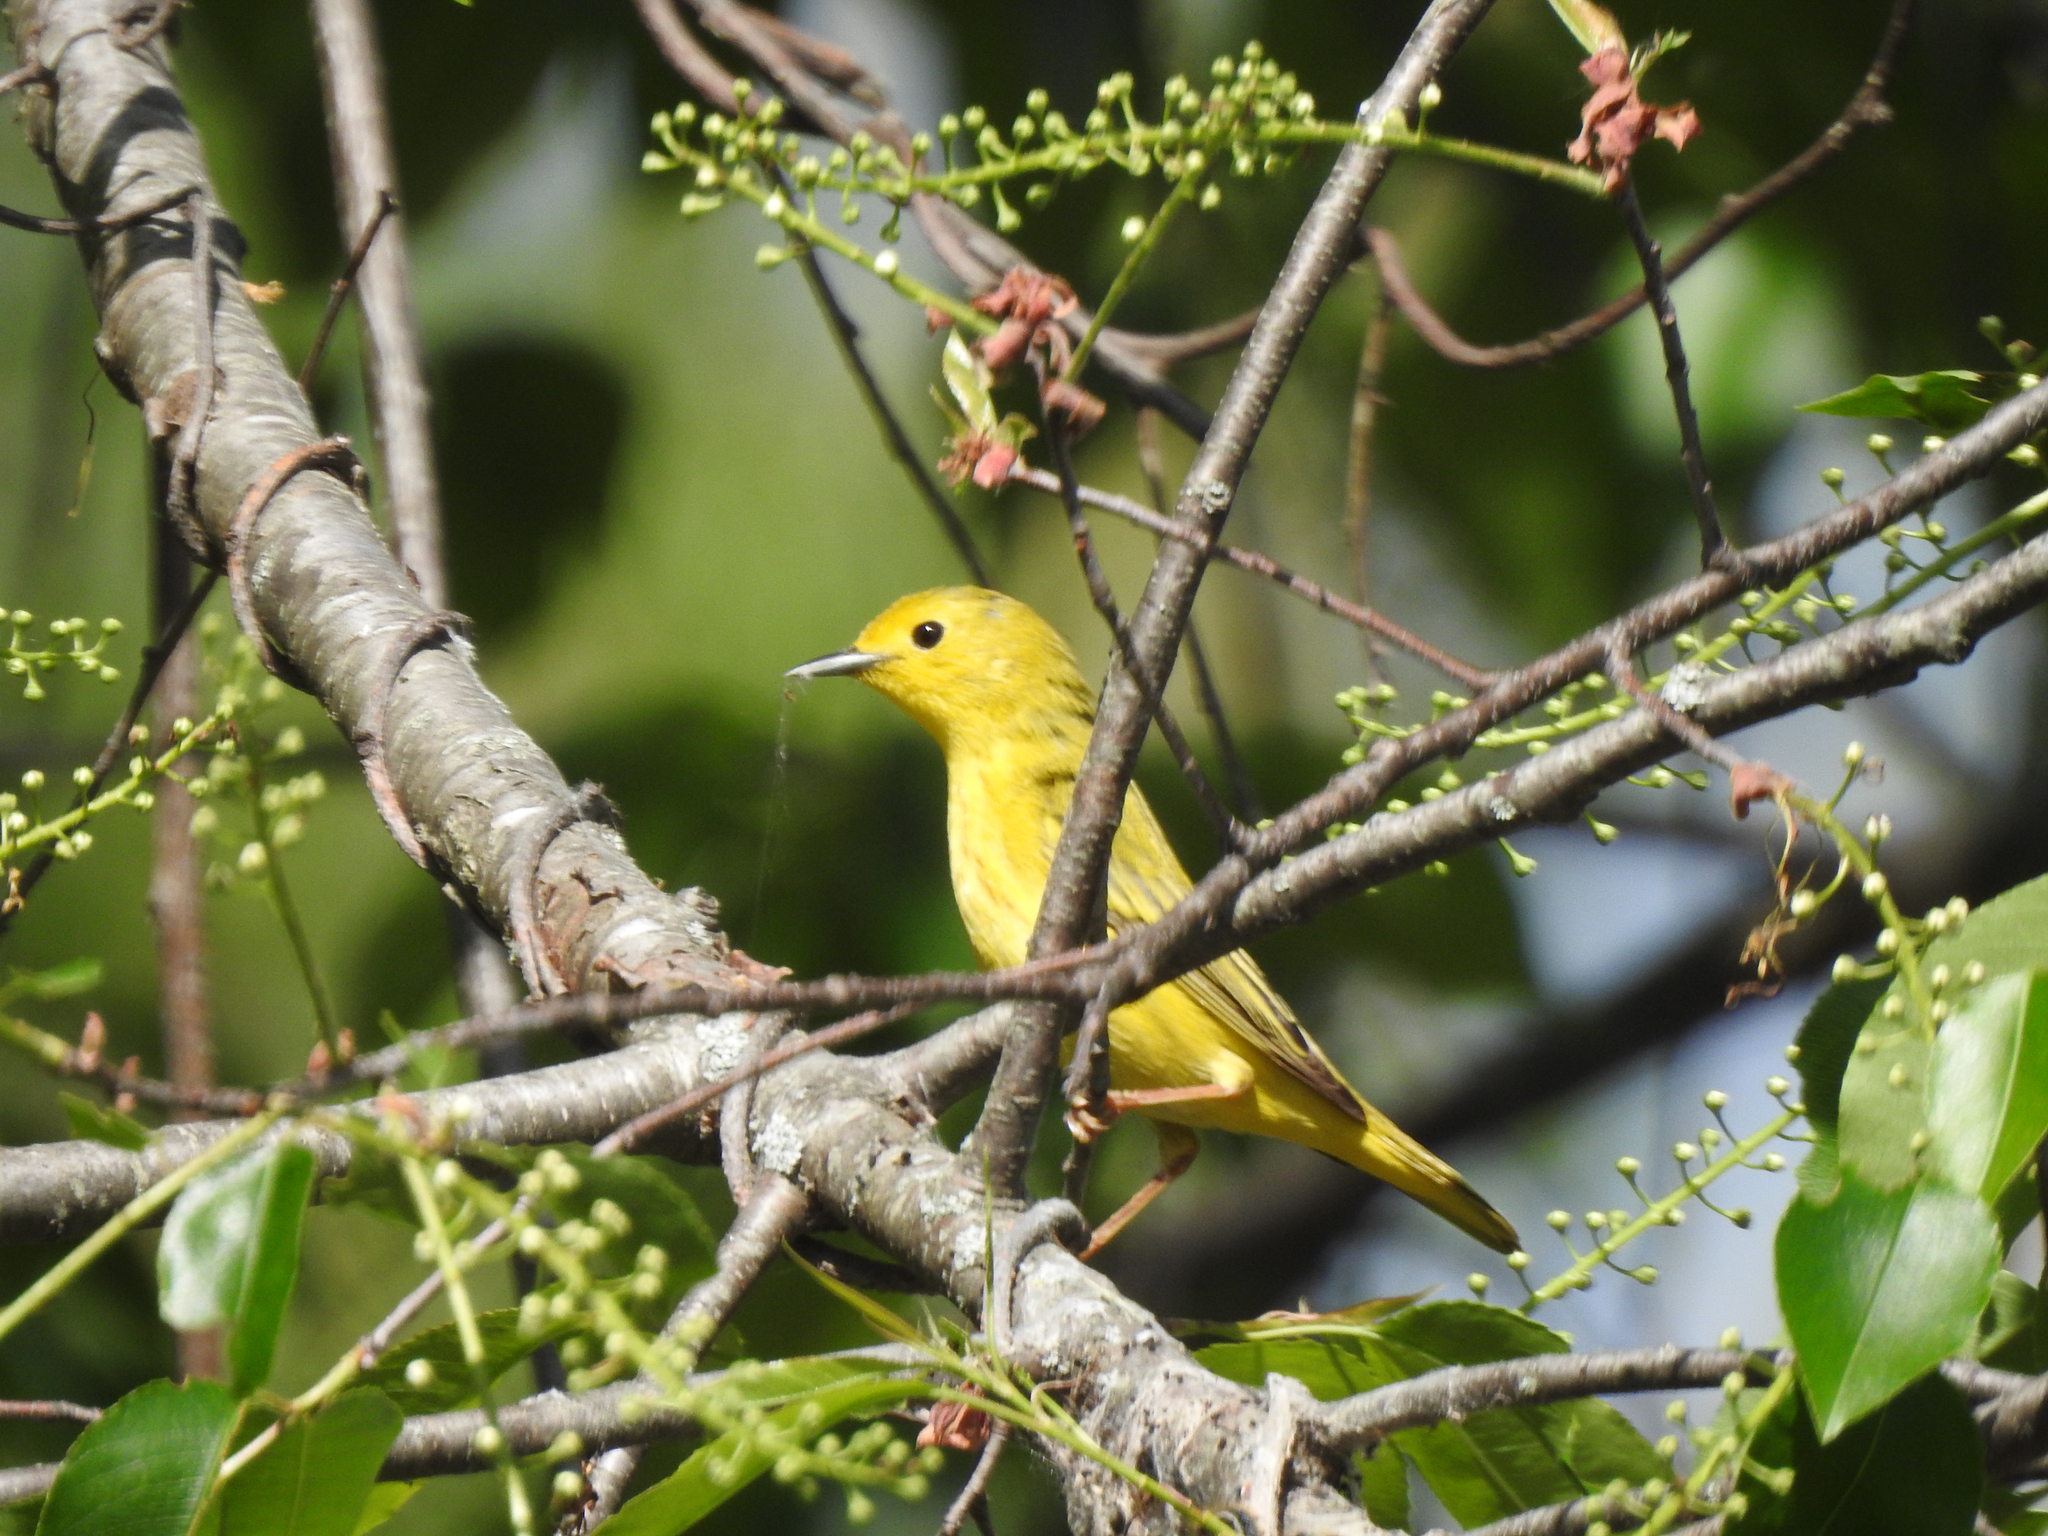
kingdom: Animalia
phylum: Chordata
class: Aves
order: Passeriformes
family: Parulidae
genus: Setophaga
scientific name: Setophaga petechia
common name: Yellow warbler
